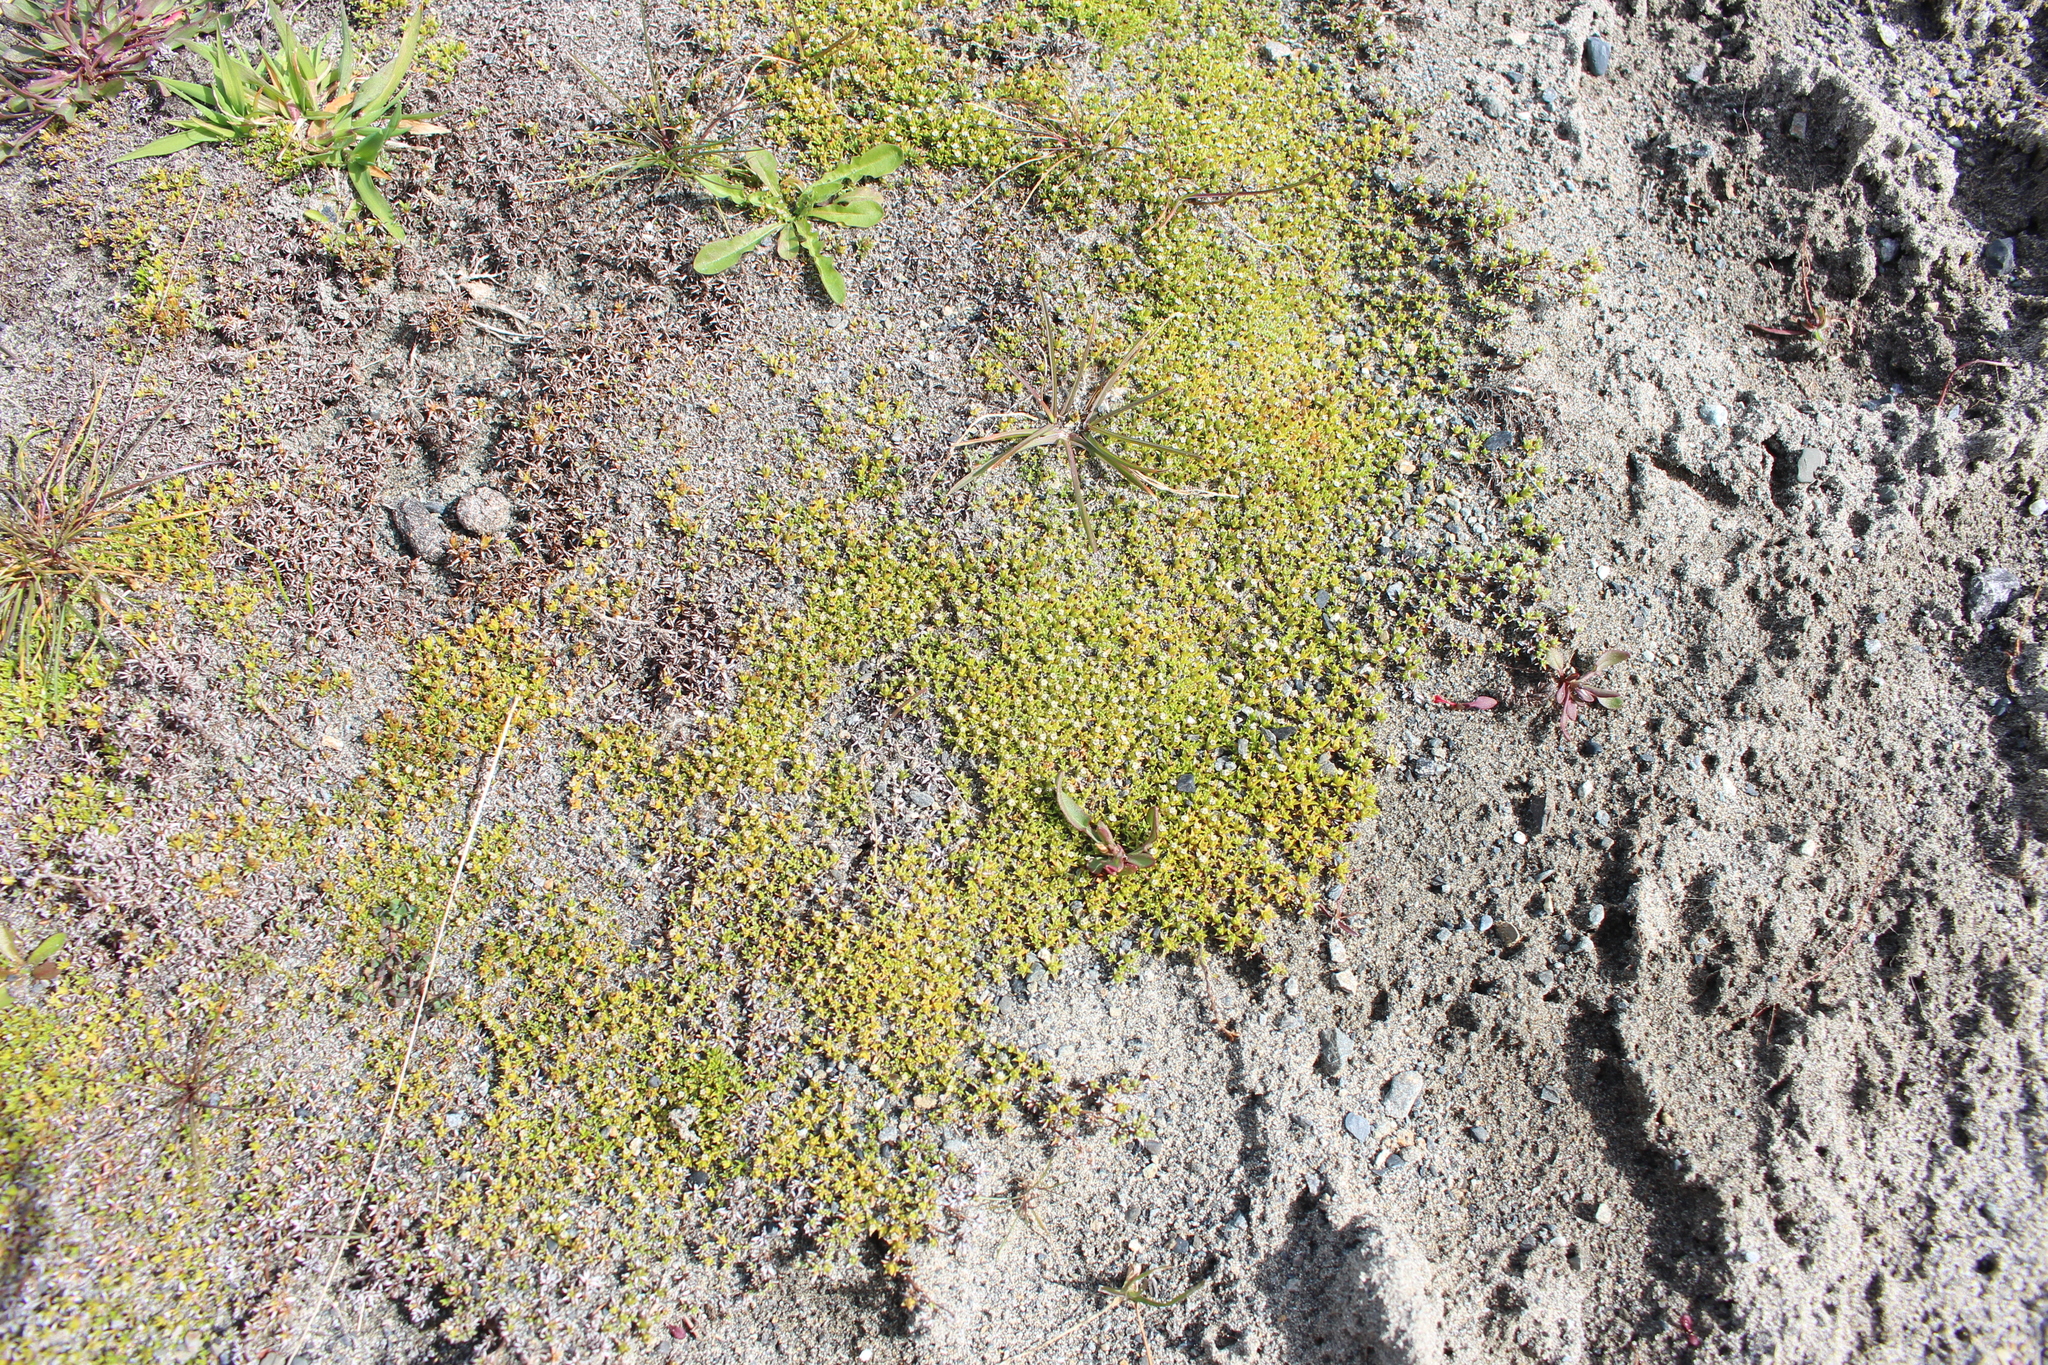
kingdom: Plantae
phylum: Tracheophyta
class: Magnoliopsida
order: Asterales
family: Asteraceae
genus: Raoulia
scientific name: Raoulia tenuicaulis
